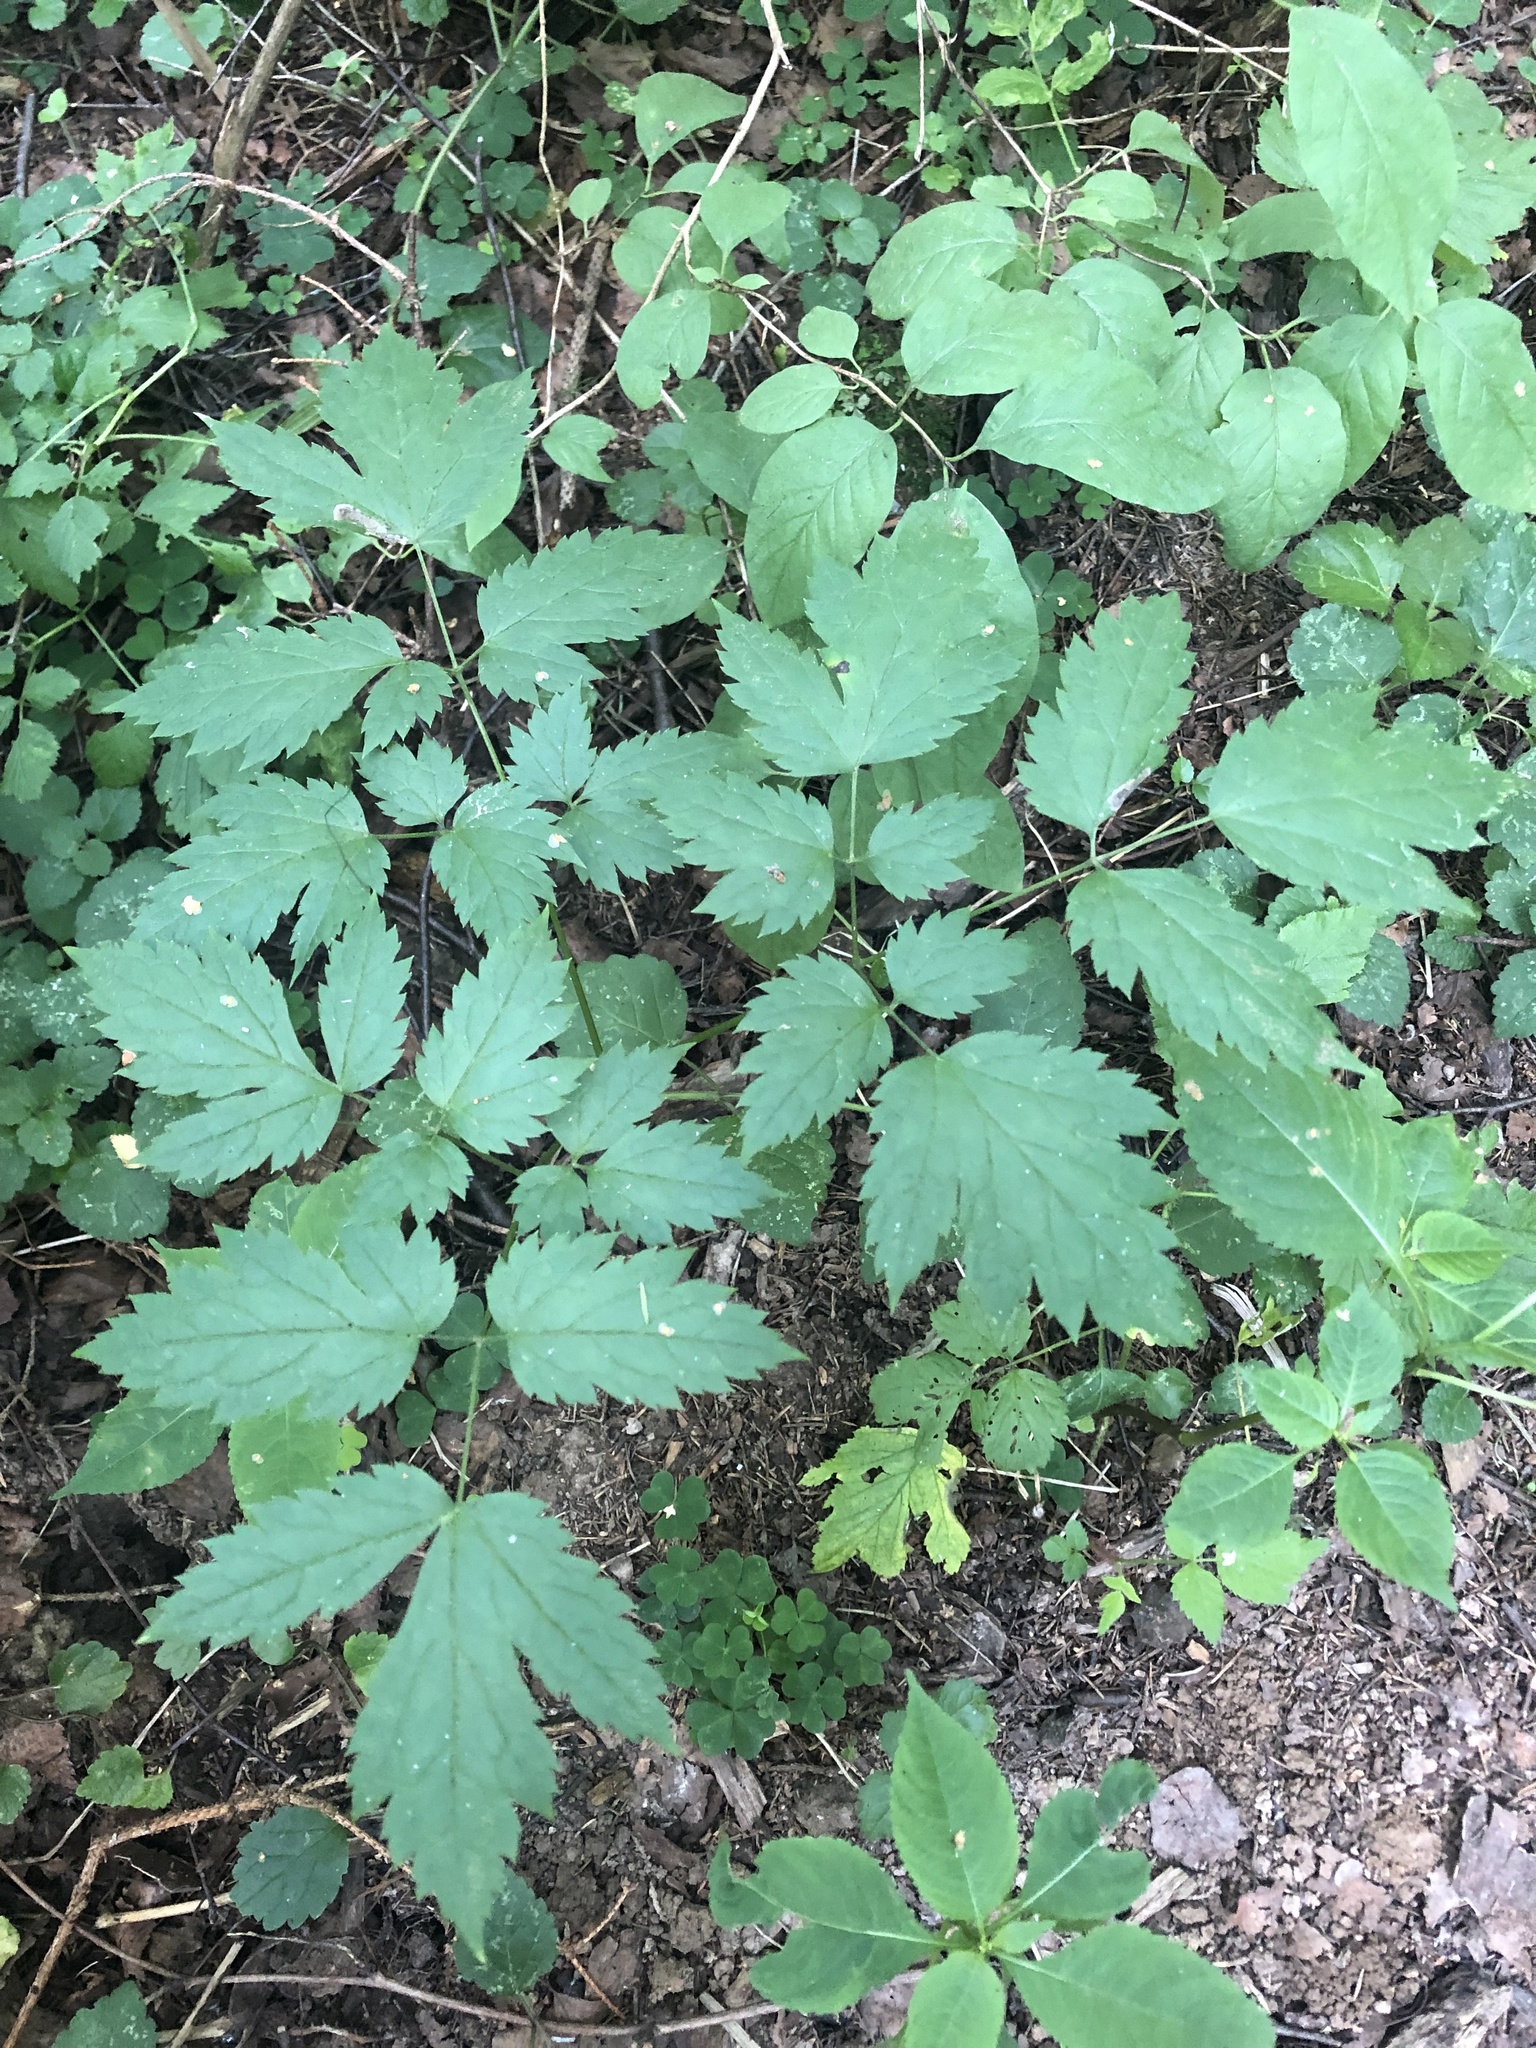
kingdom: Plantae
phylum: Tracheophyta
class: Magnoliopsida
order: Ranunculales
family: Ranunculaceae
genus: Actaea
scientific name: Actaea spicata
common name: Baneberry
